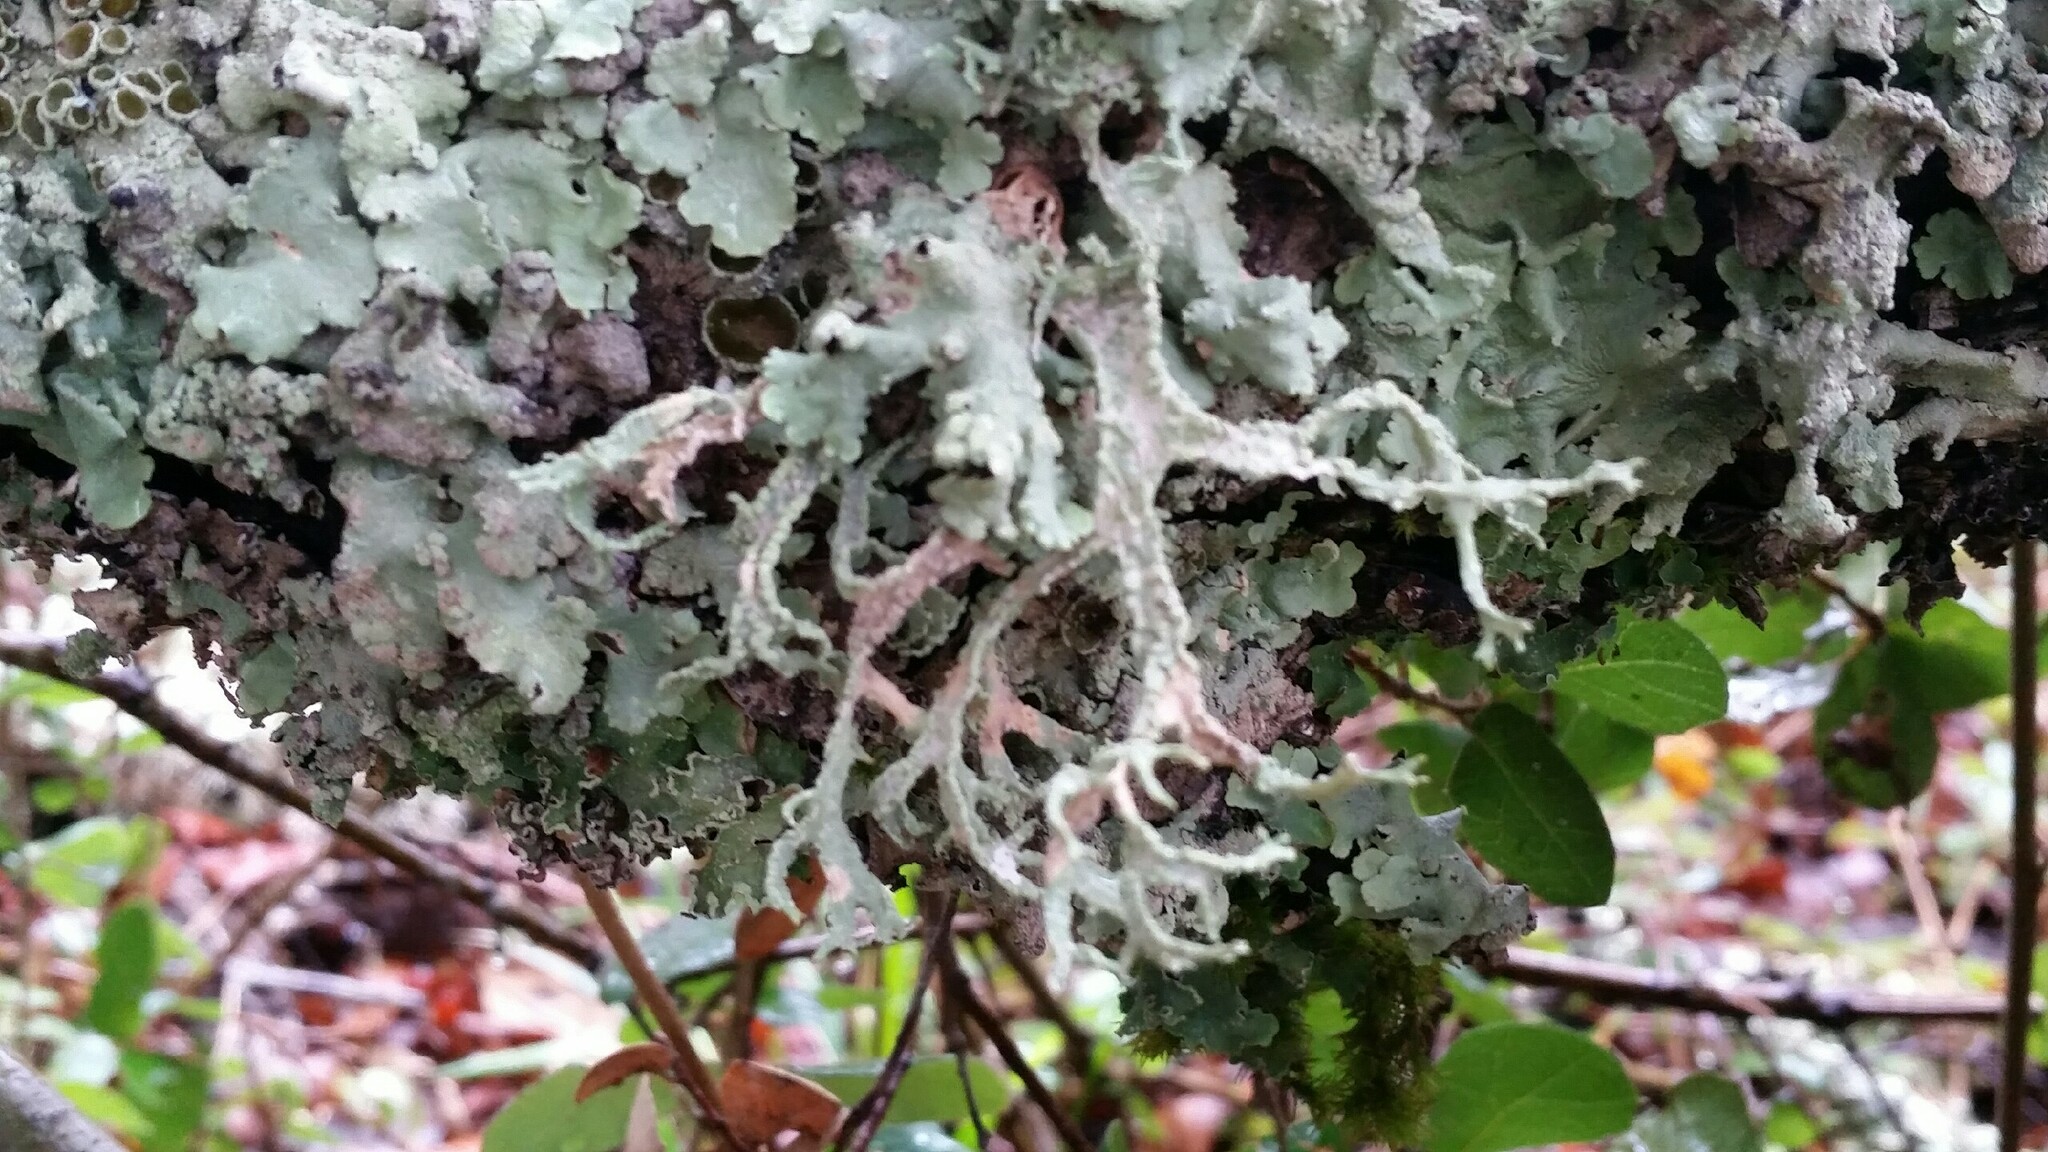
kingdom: Fungi
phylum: Ascomycota
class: Lecanoromycetes
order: Lecanorales
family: Parmeliaceae
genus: Evernia
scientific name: Evernia prunastri
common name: Oak moss
